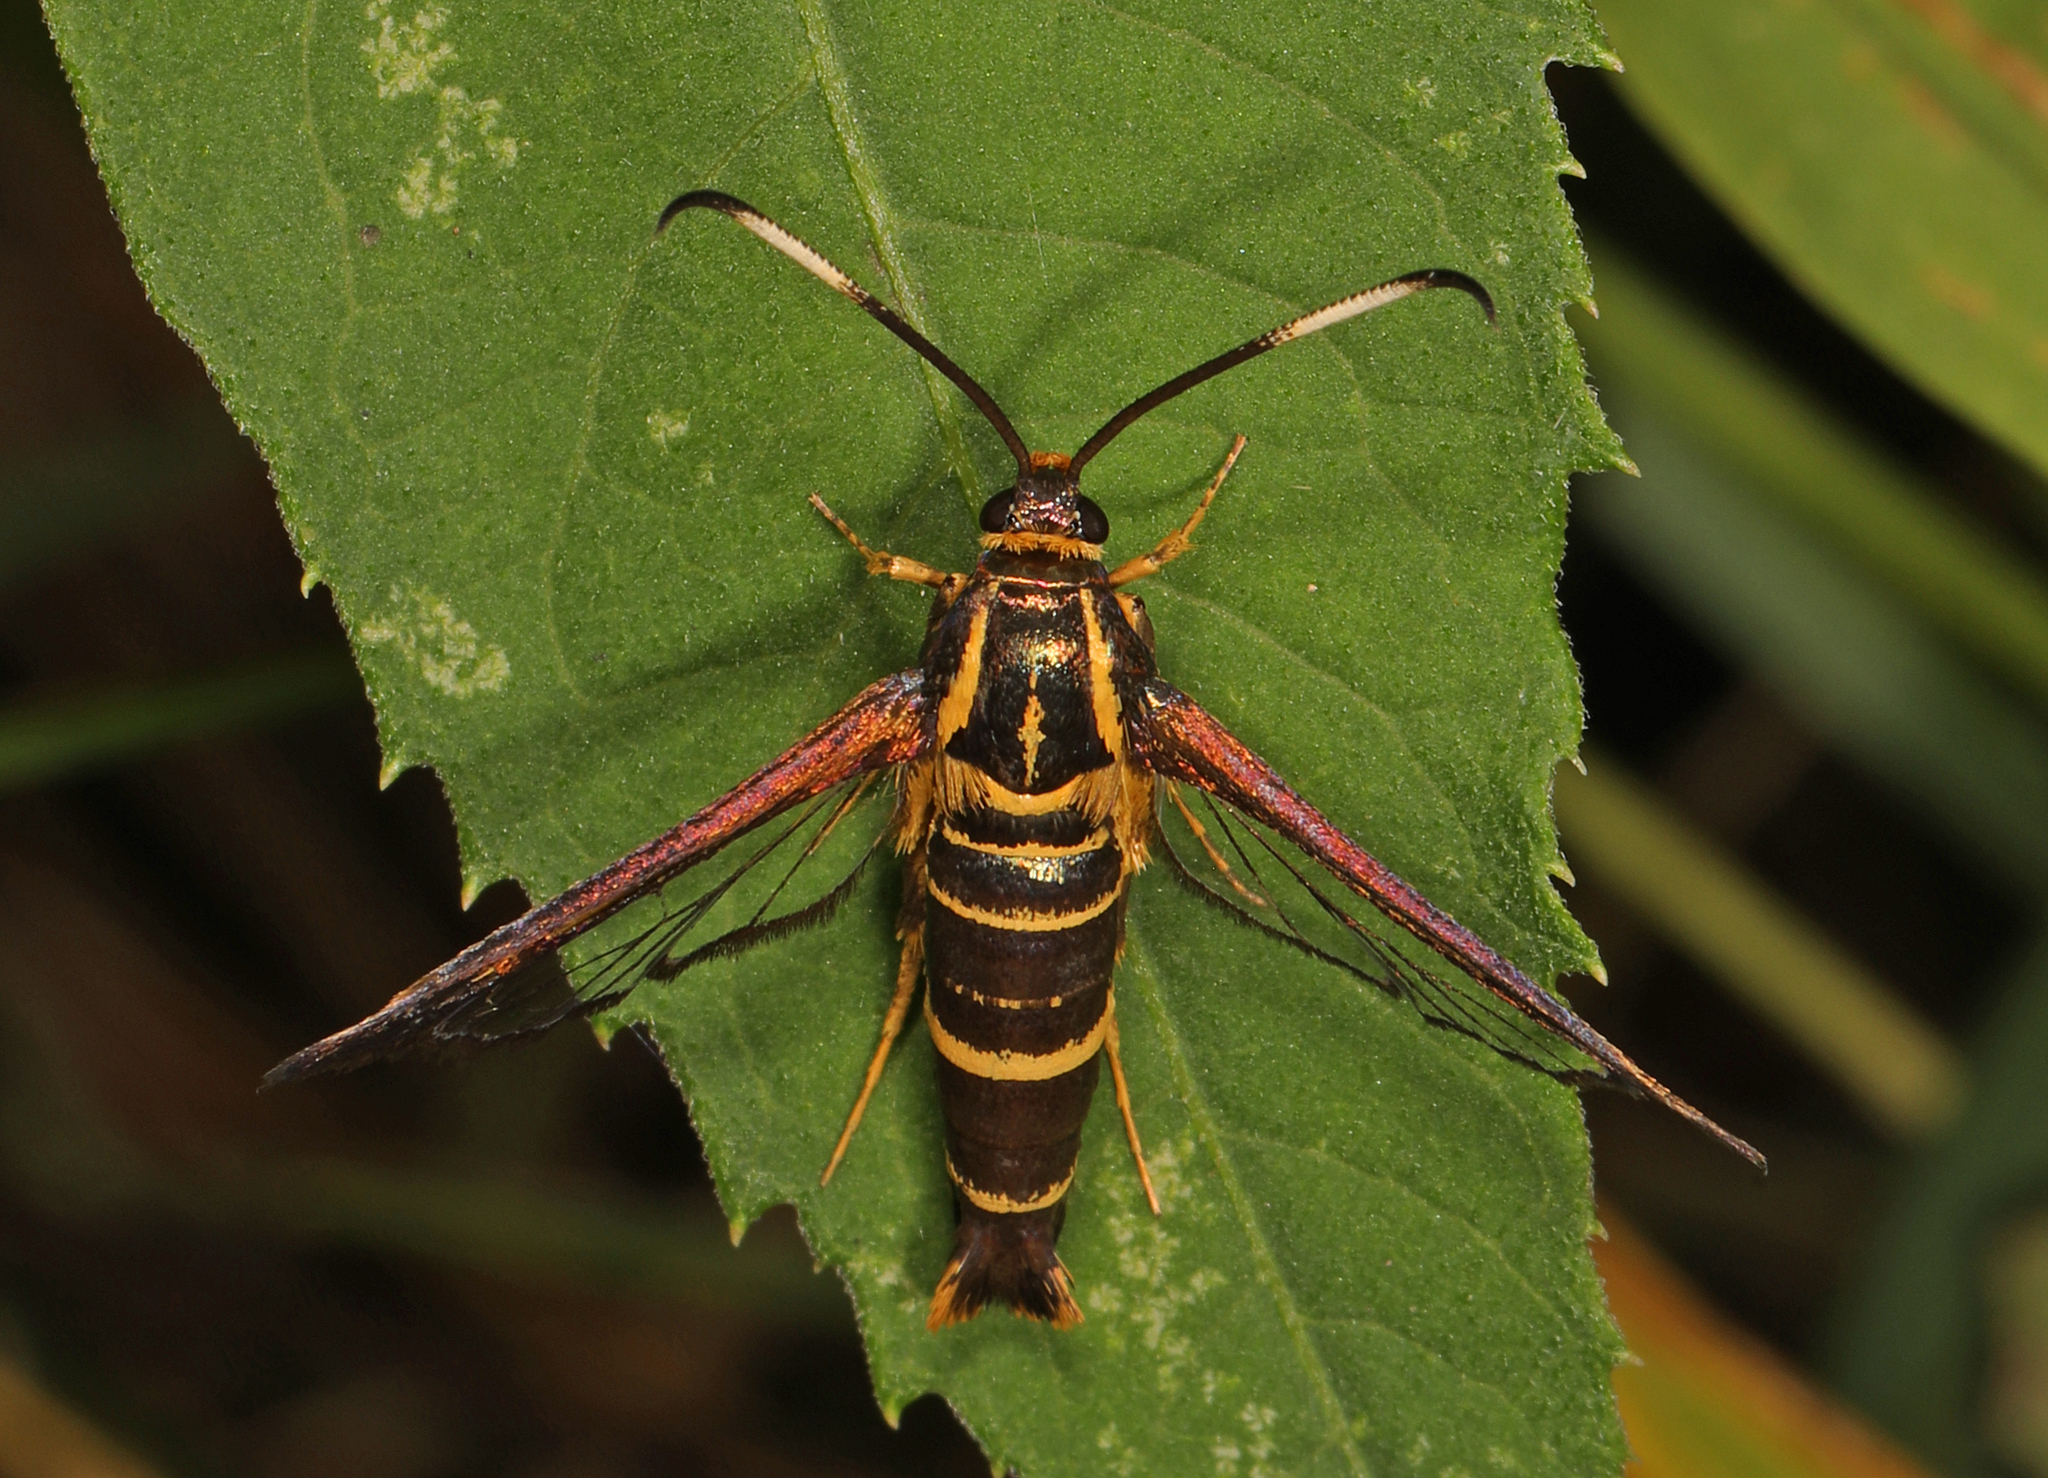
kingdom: Animalia
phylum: Arthropoda
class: Insecta
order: Lepidoptera
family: Sesiidae
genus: Carmenta
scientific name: Carmenta bassiformis
